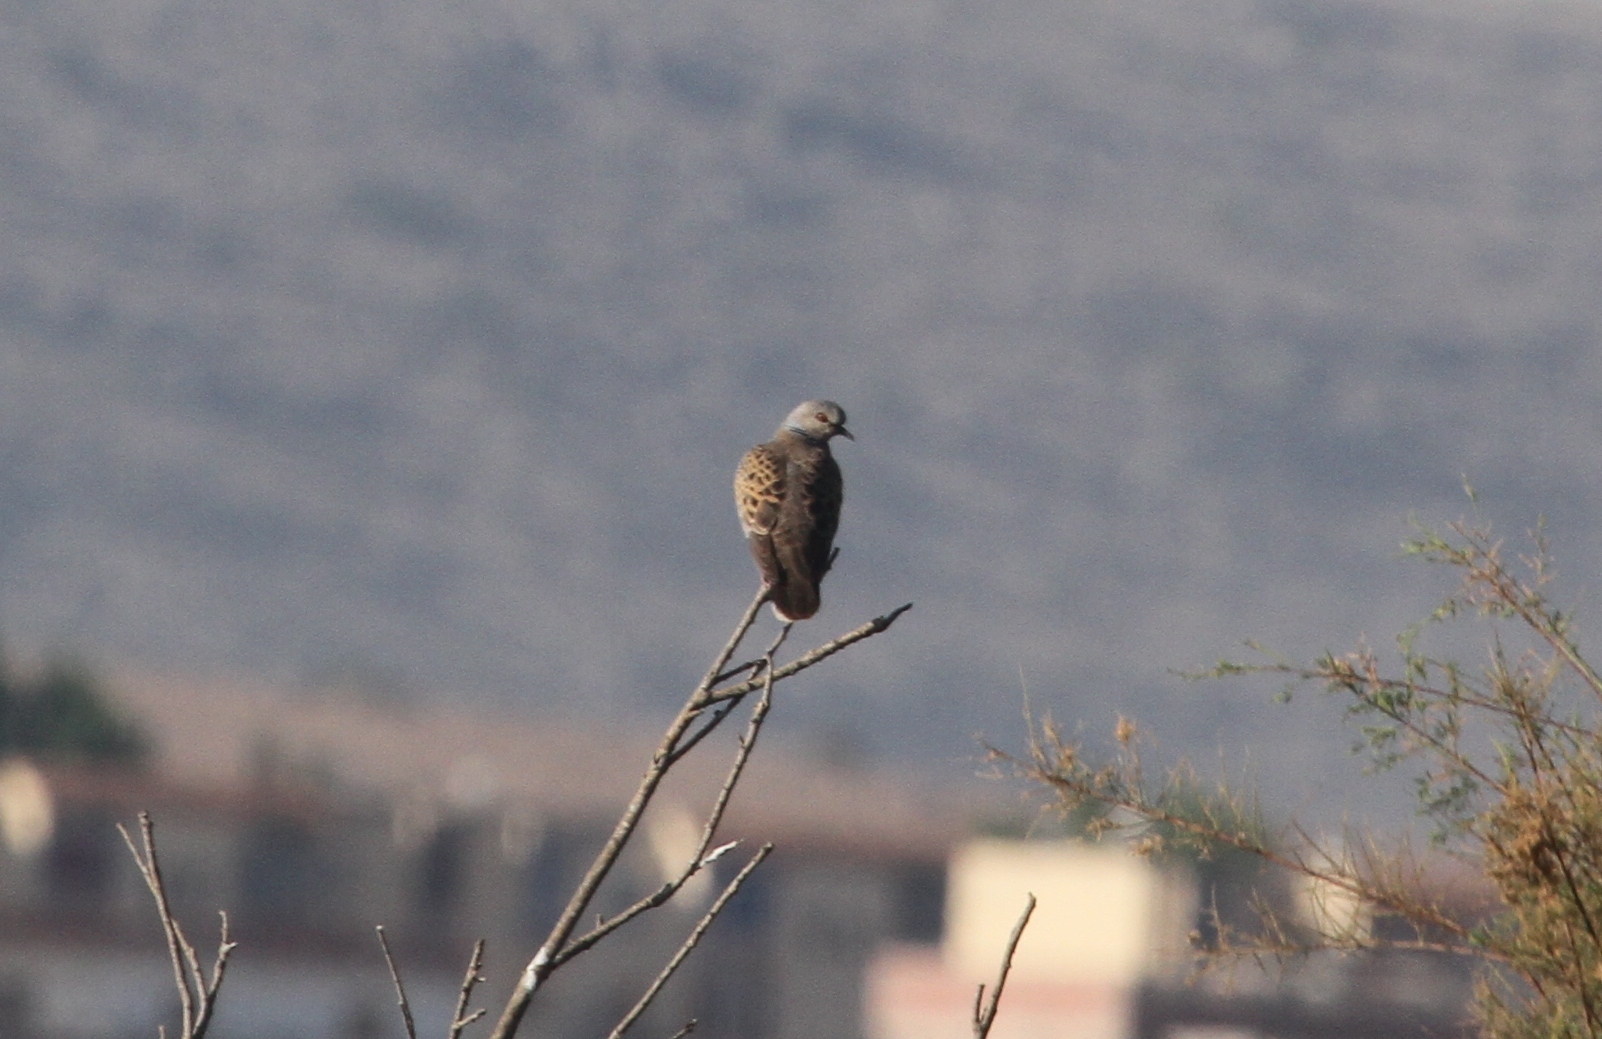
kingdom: Animalia
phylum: Chordata
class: Aves
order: Columbiformes
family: Columbidae
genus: Streptopelia
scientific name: Streptopelia turtur
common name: European turtle dove
